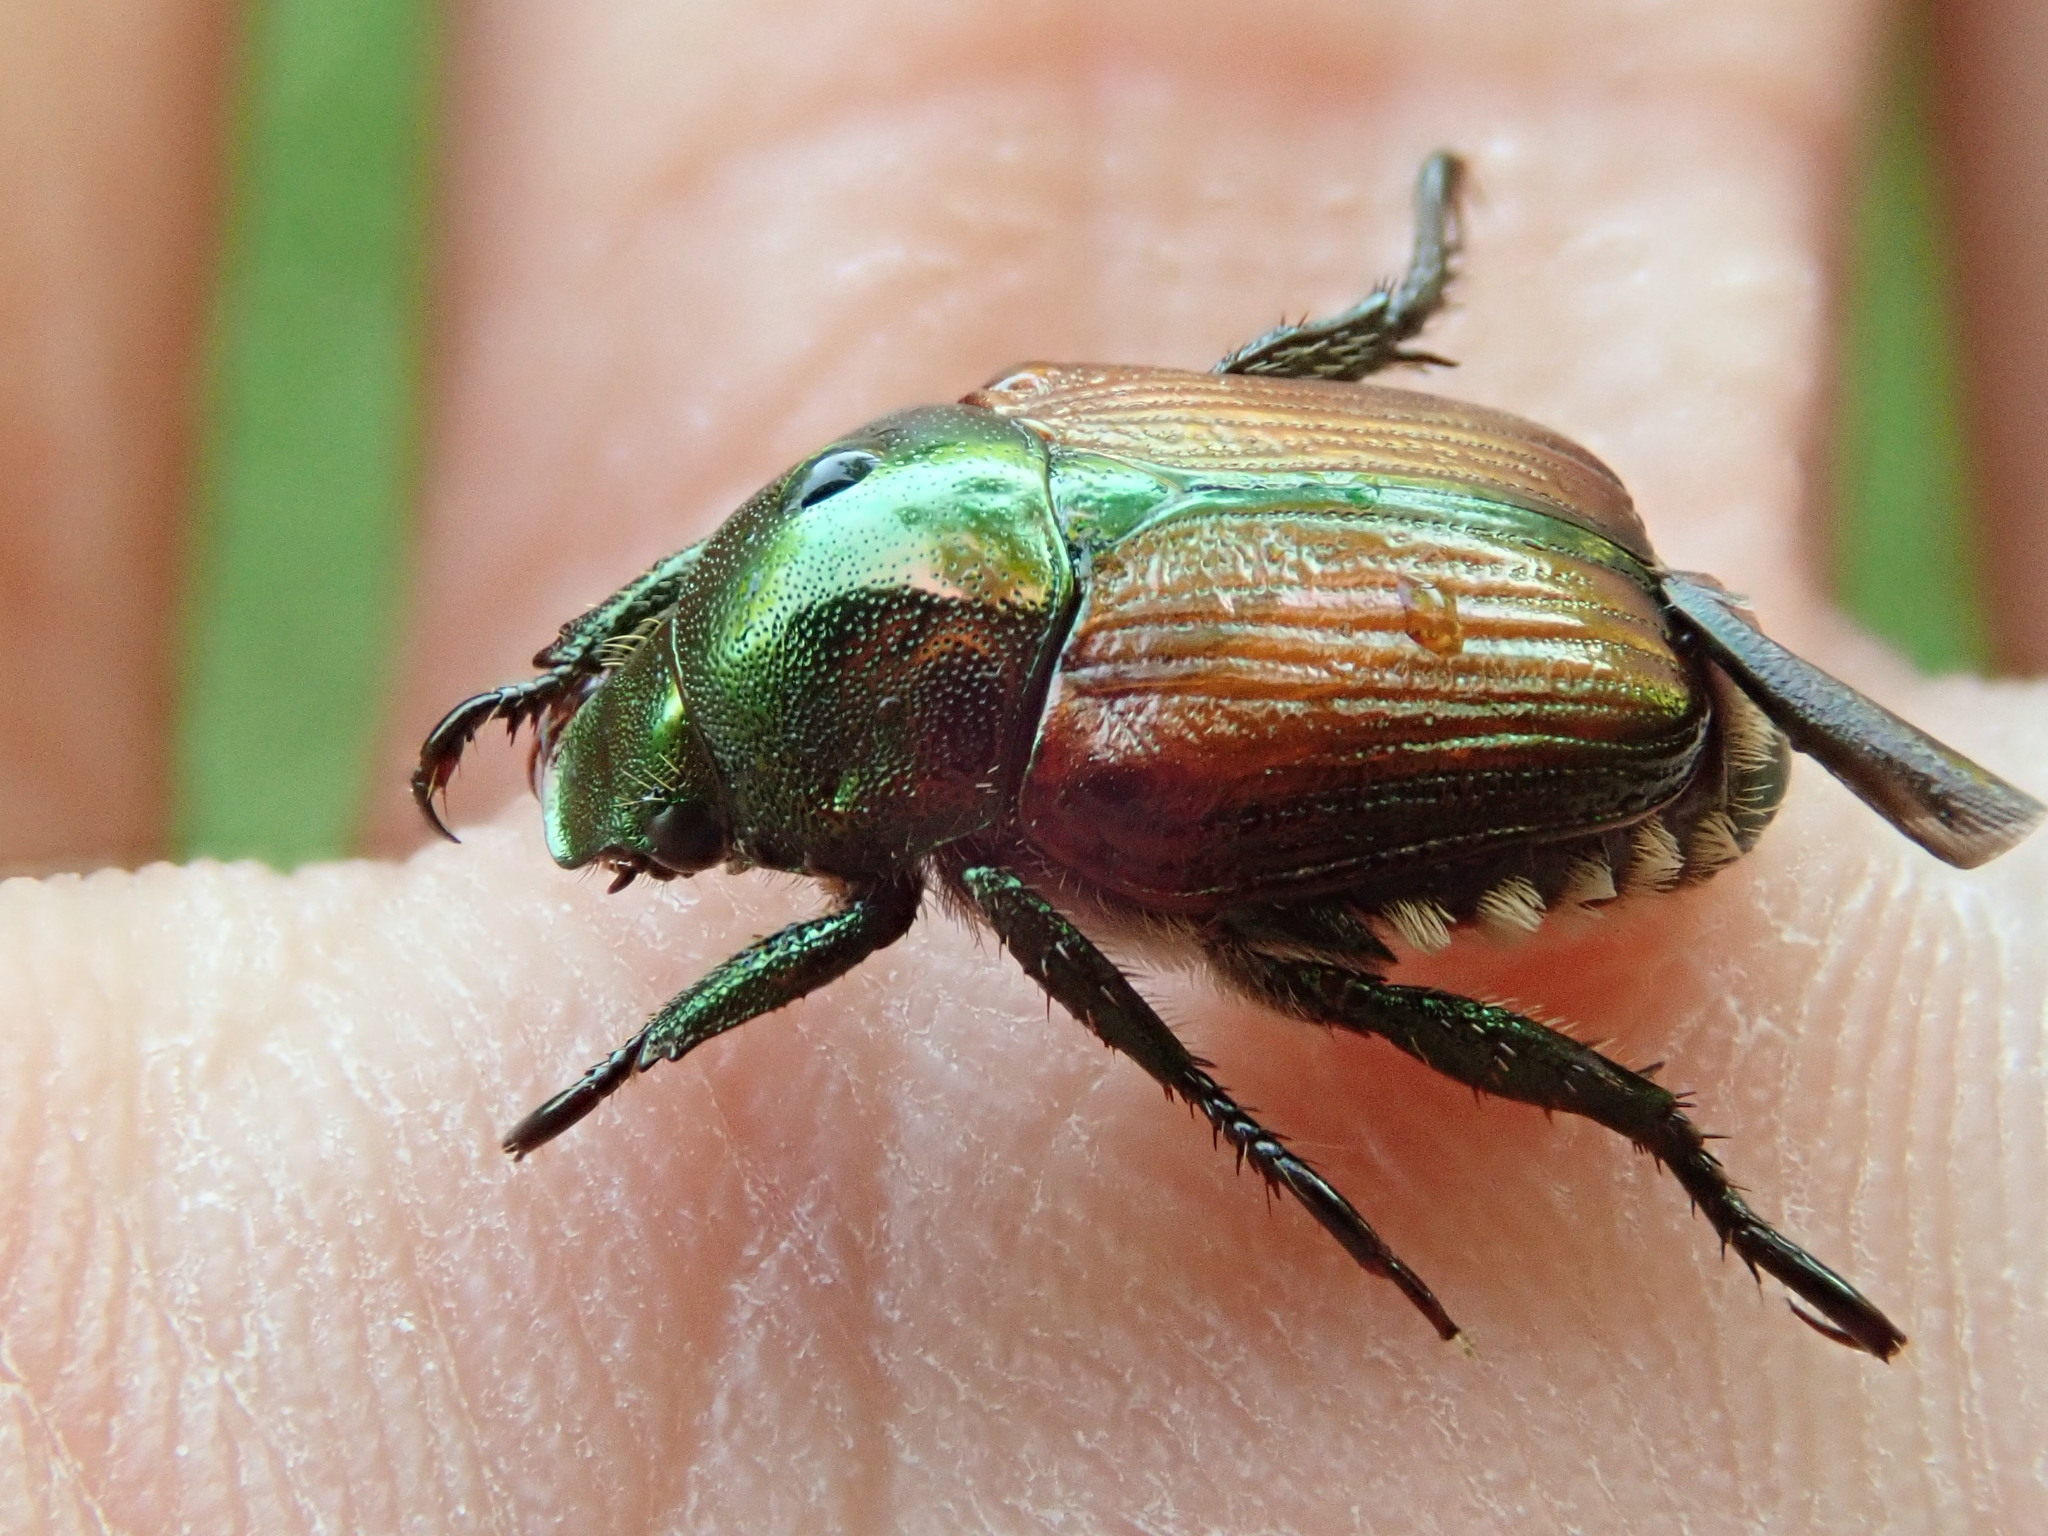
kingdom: Animalia
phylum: Arthropoda
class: Insecta
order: Coleoptera
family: Scarabaeidae
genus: Popillia
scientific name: Popillia japonica
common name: Japanese beetle
